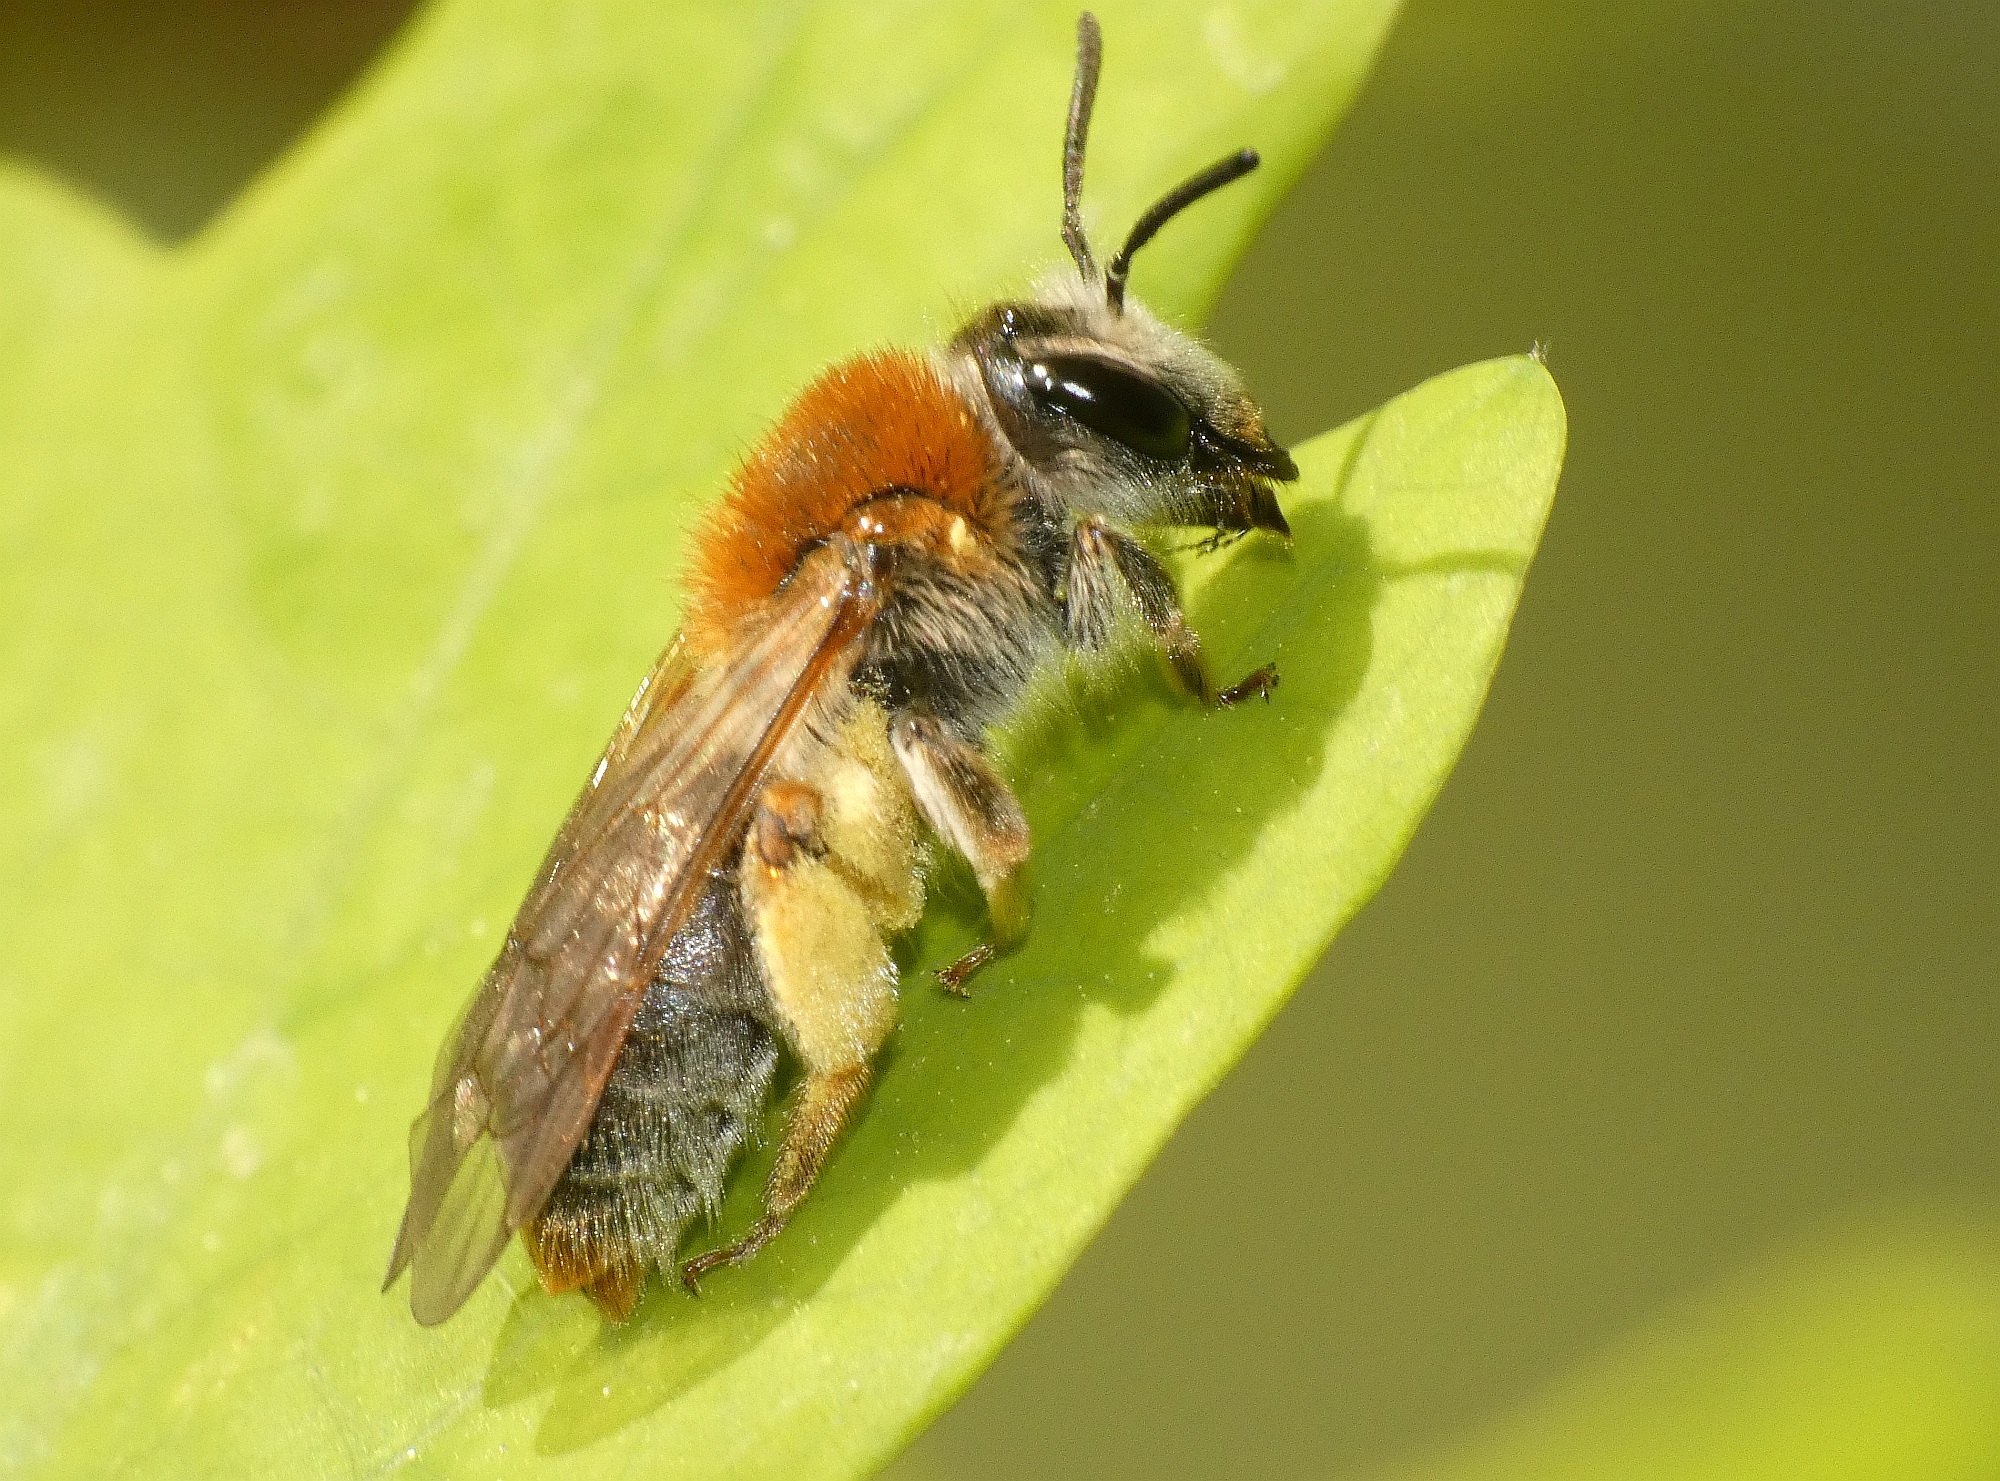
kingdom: Animalia
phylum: Arthropoda
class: Insecta
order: Hymenoptera
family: Andrenidae
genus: Andrena
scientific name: Andrena haemorrhoa
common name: Early mining bee
